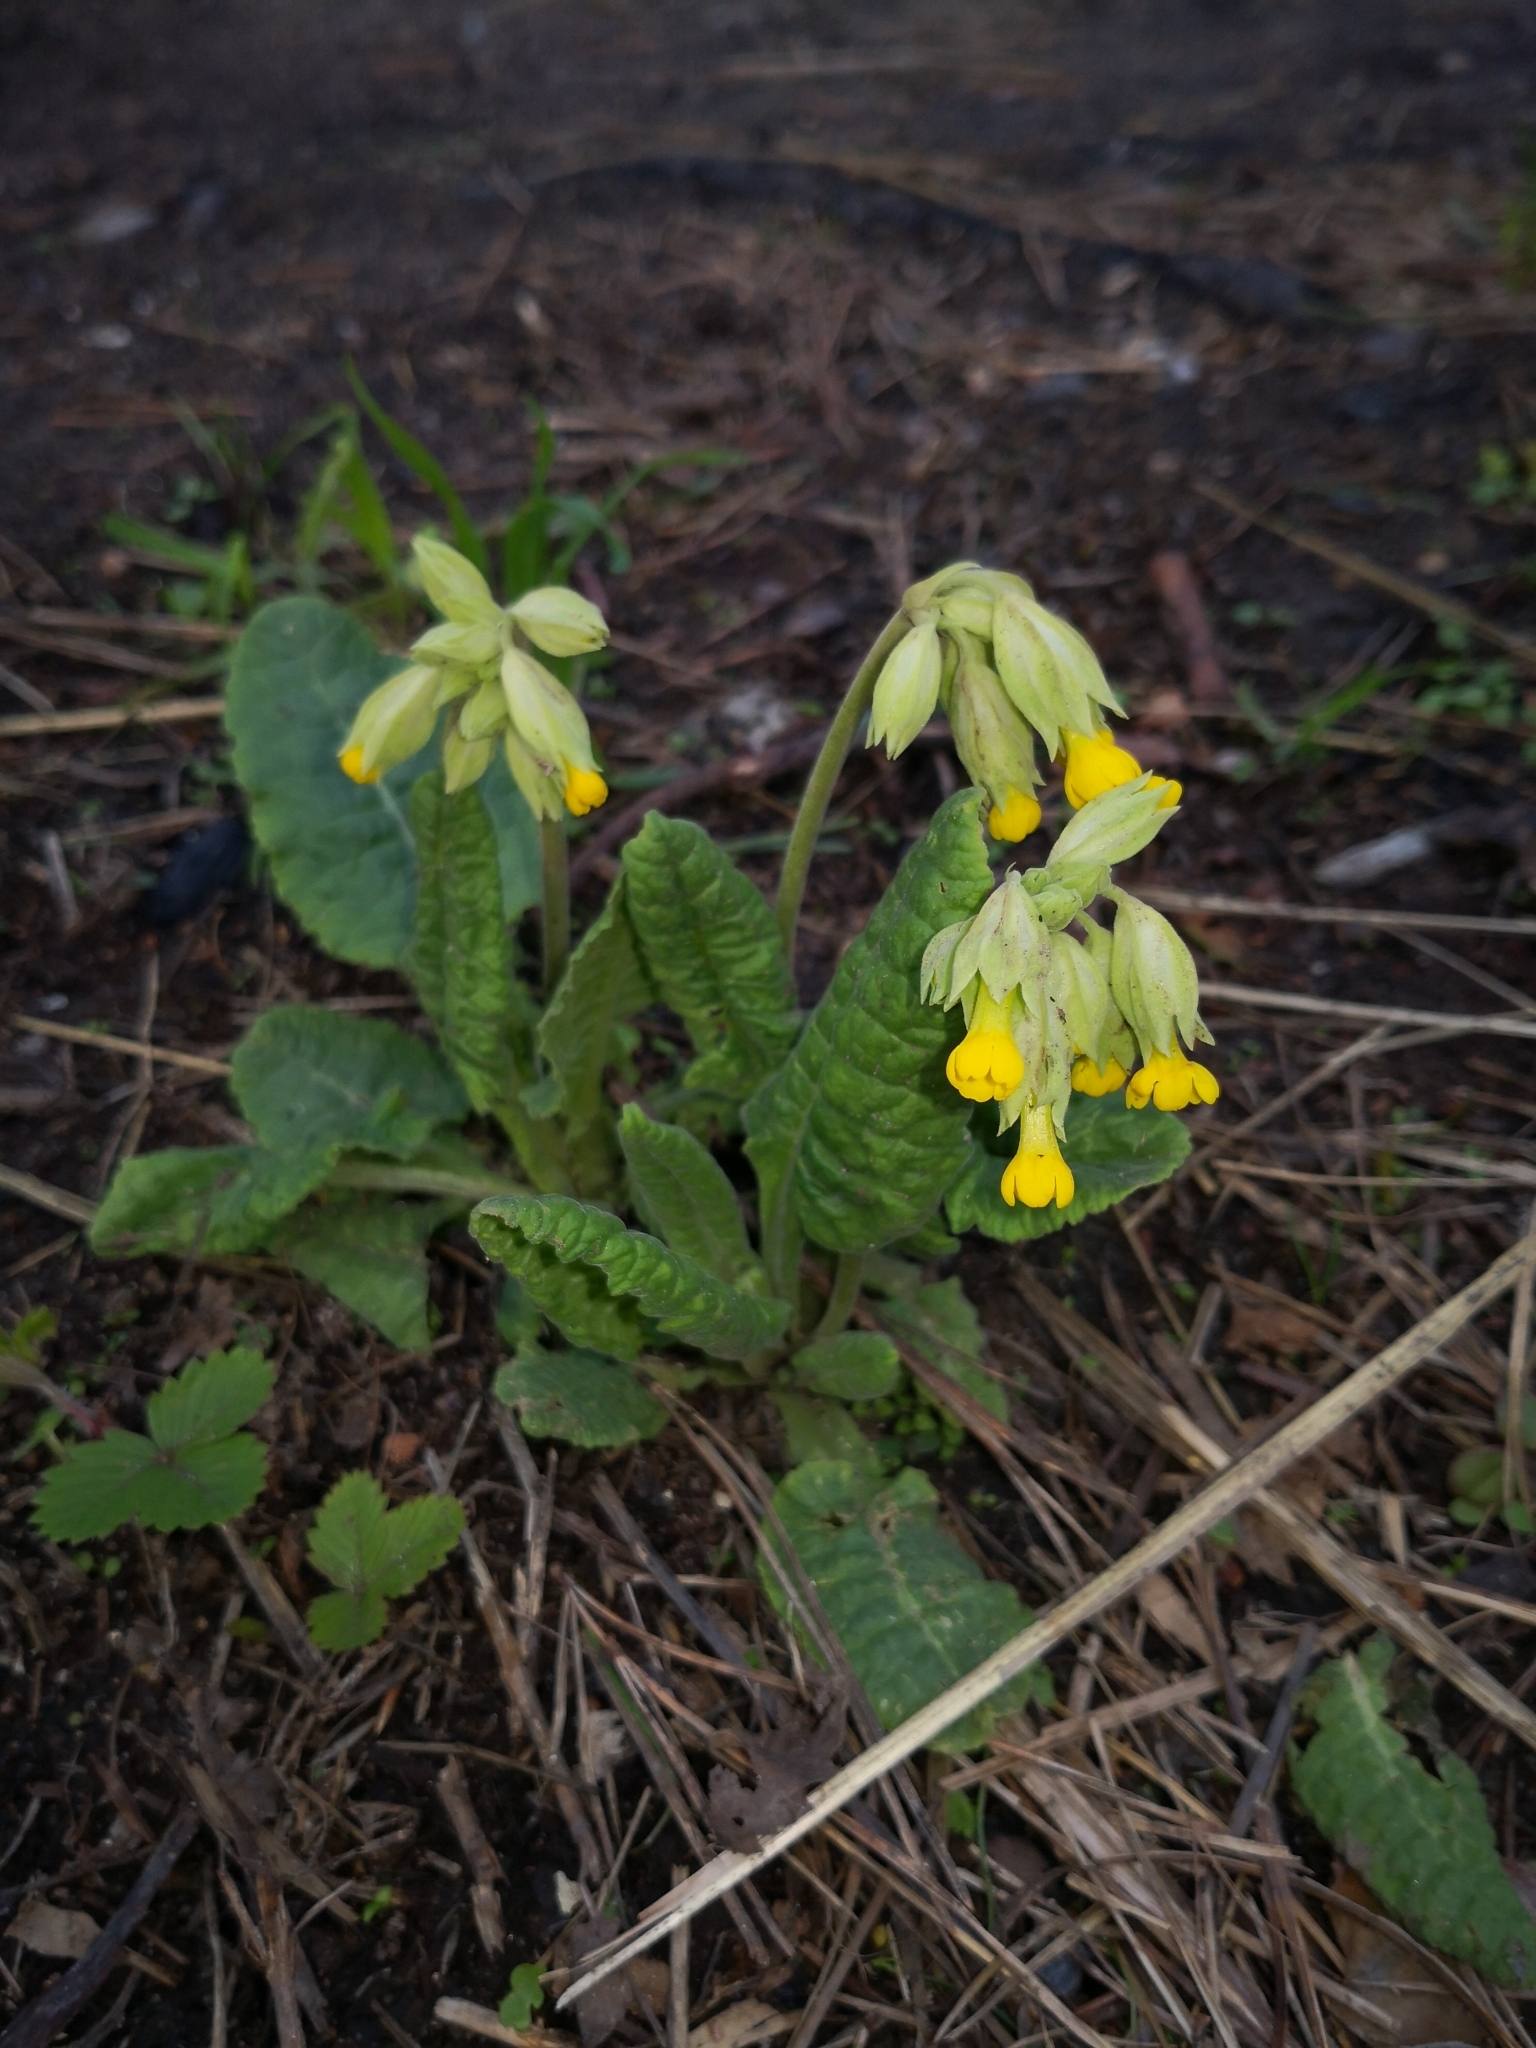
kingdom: Plantae
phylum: Tracheophyta
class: Magnoliopsida
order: Ericales
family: Primulaceae
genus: Primula
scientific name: Primula veris
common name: Cowslip
